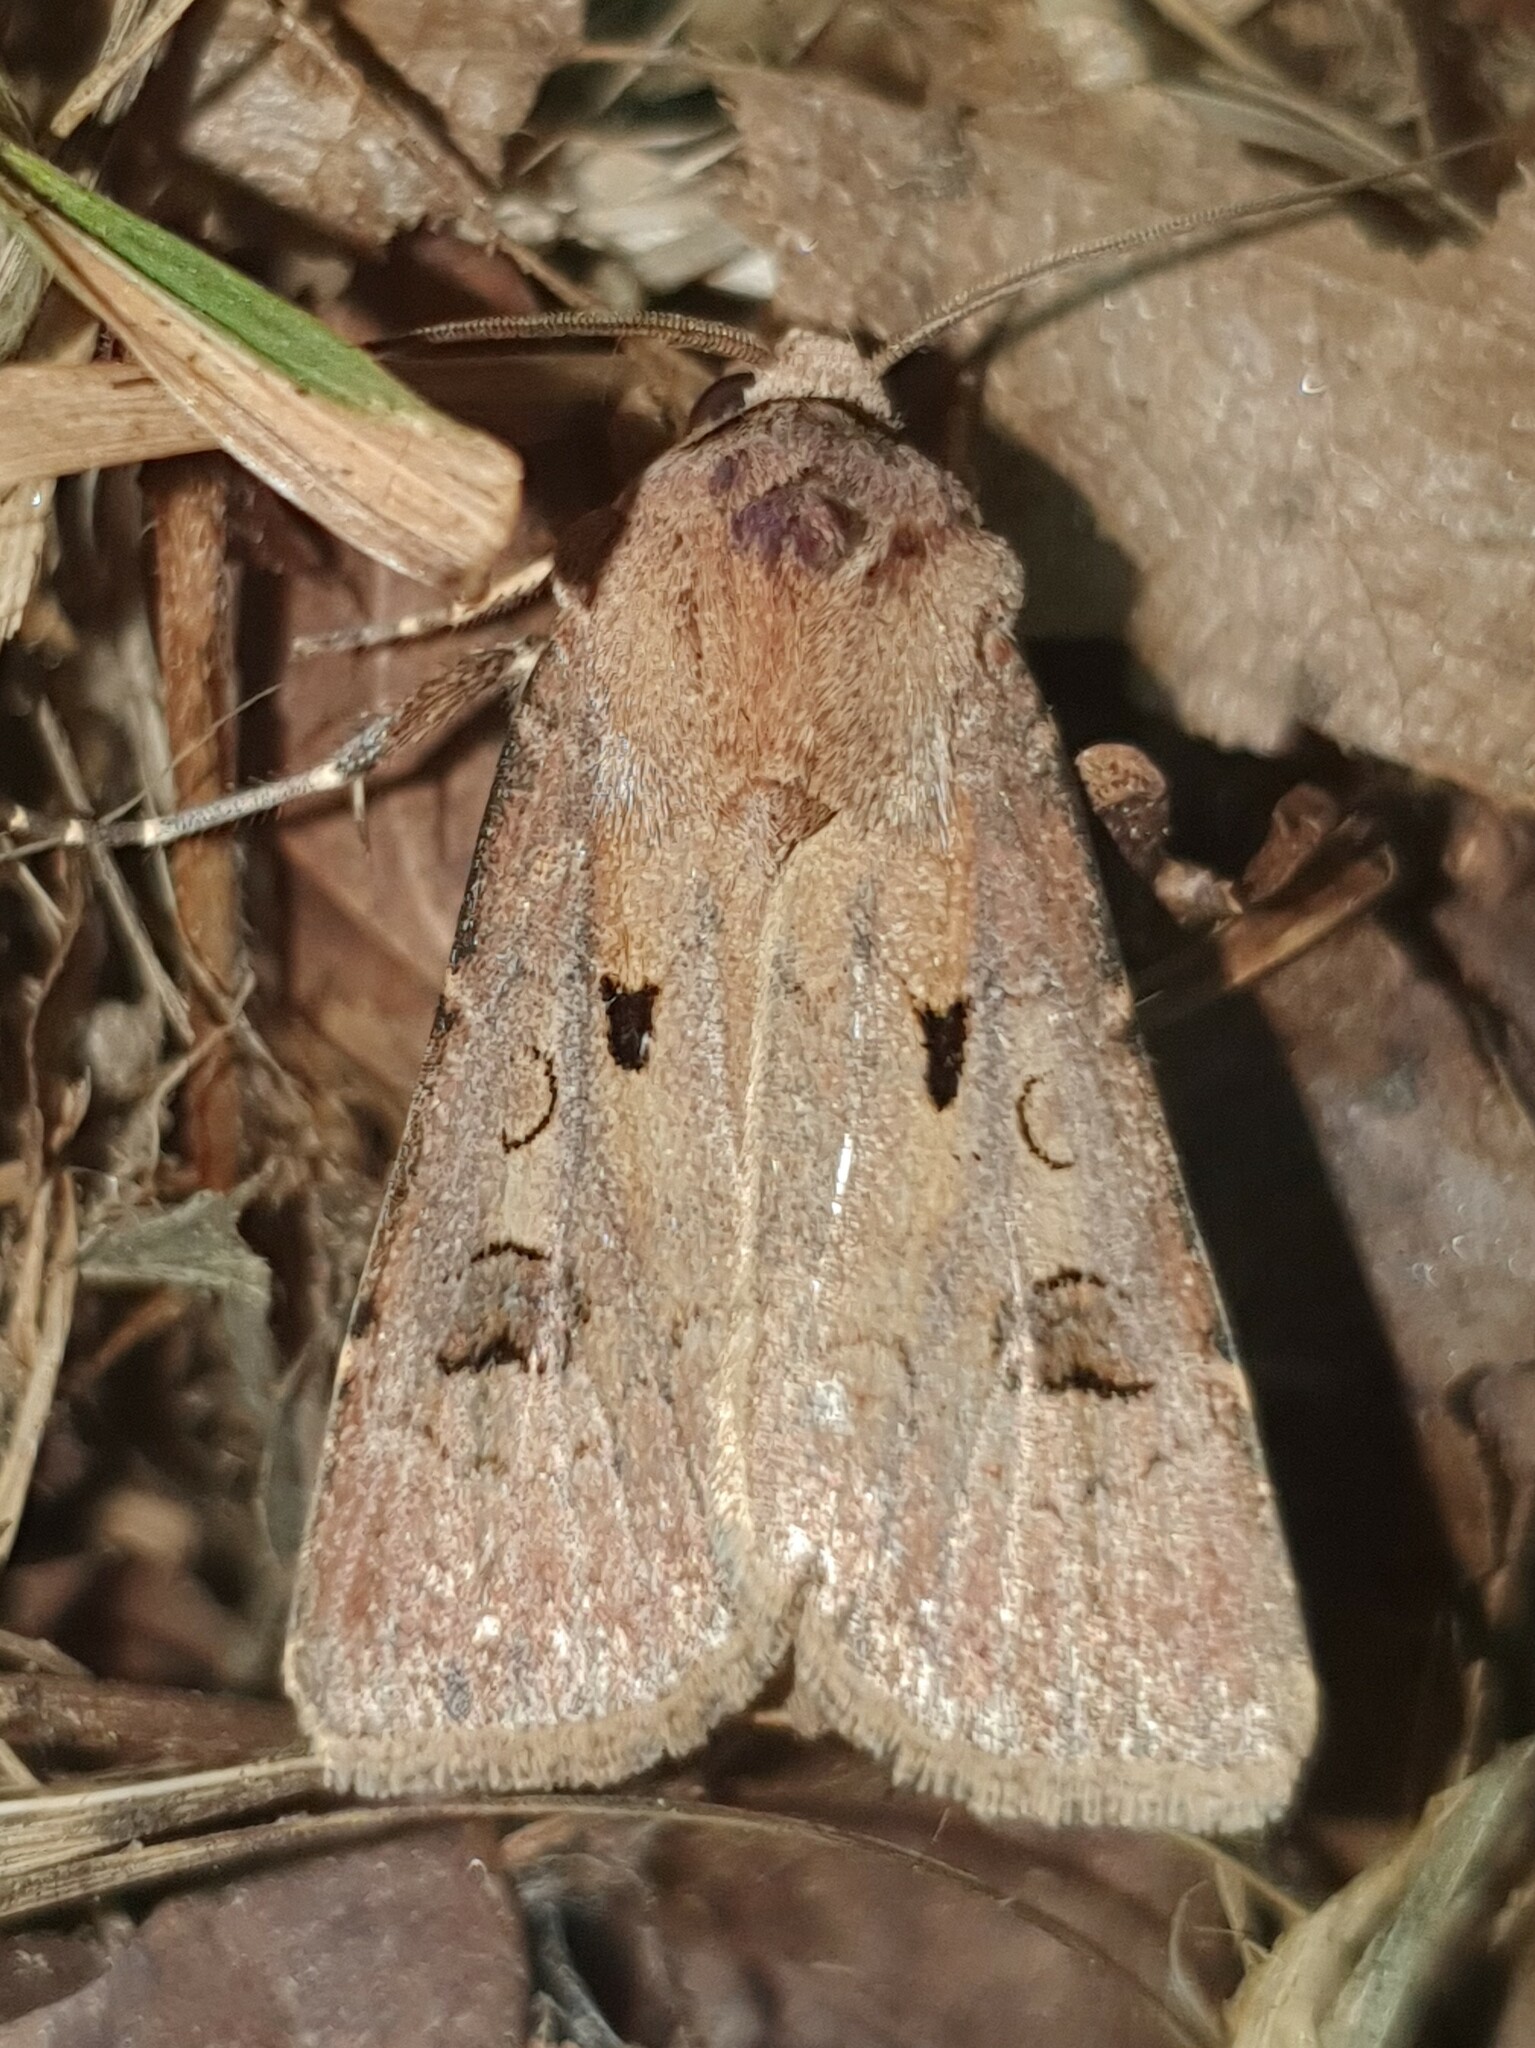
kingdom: Animalia
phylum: Arthropoda
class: Insecta
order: Lepidoptera
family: Noctuidae
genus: Agrotis
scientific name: Agrotis exclamationis
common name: Heart and dart
